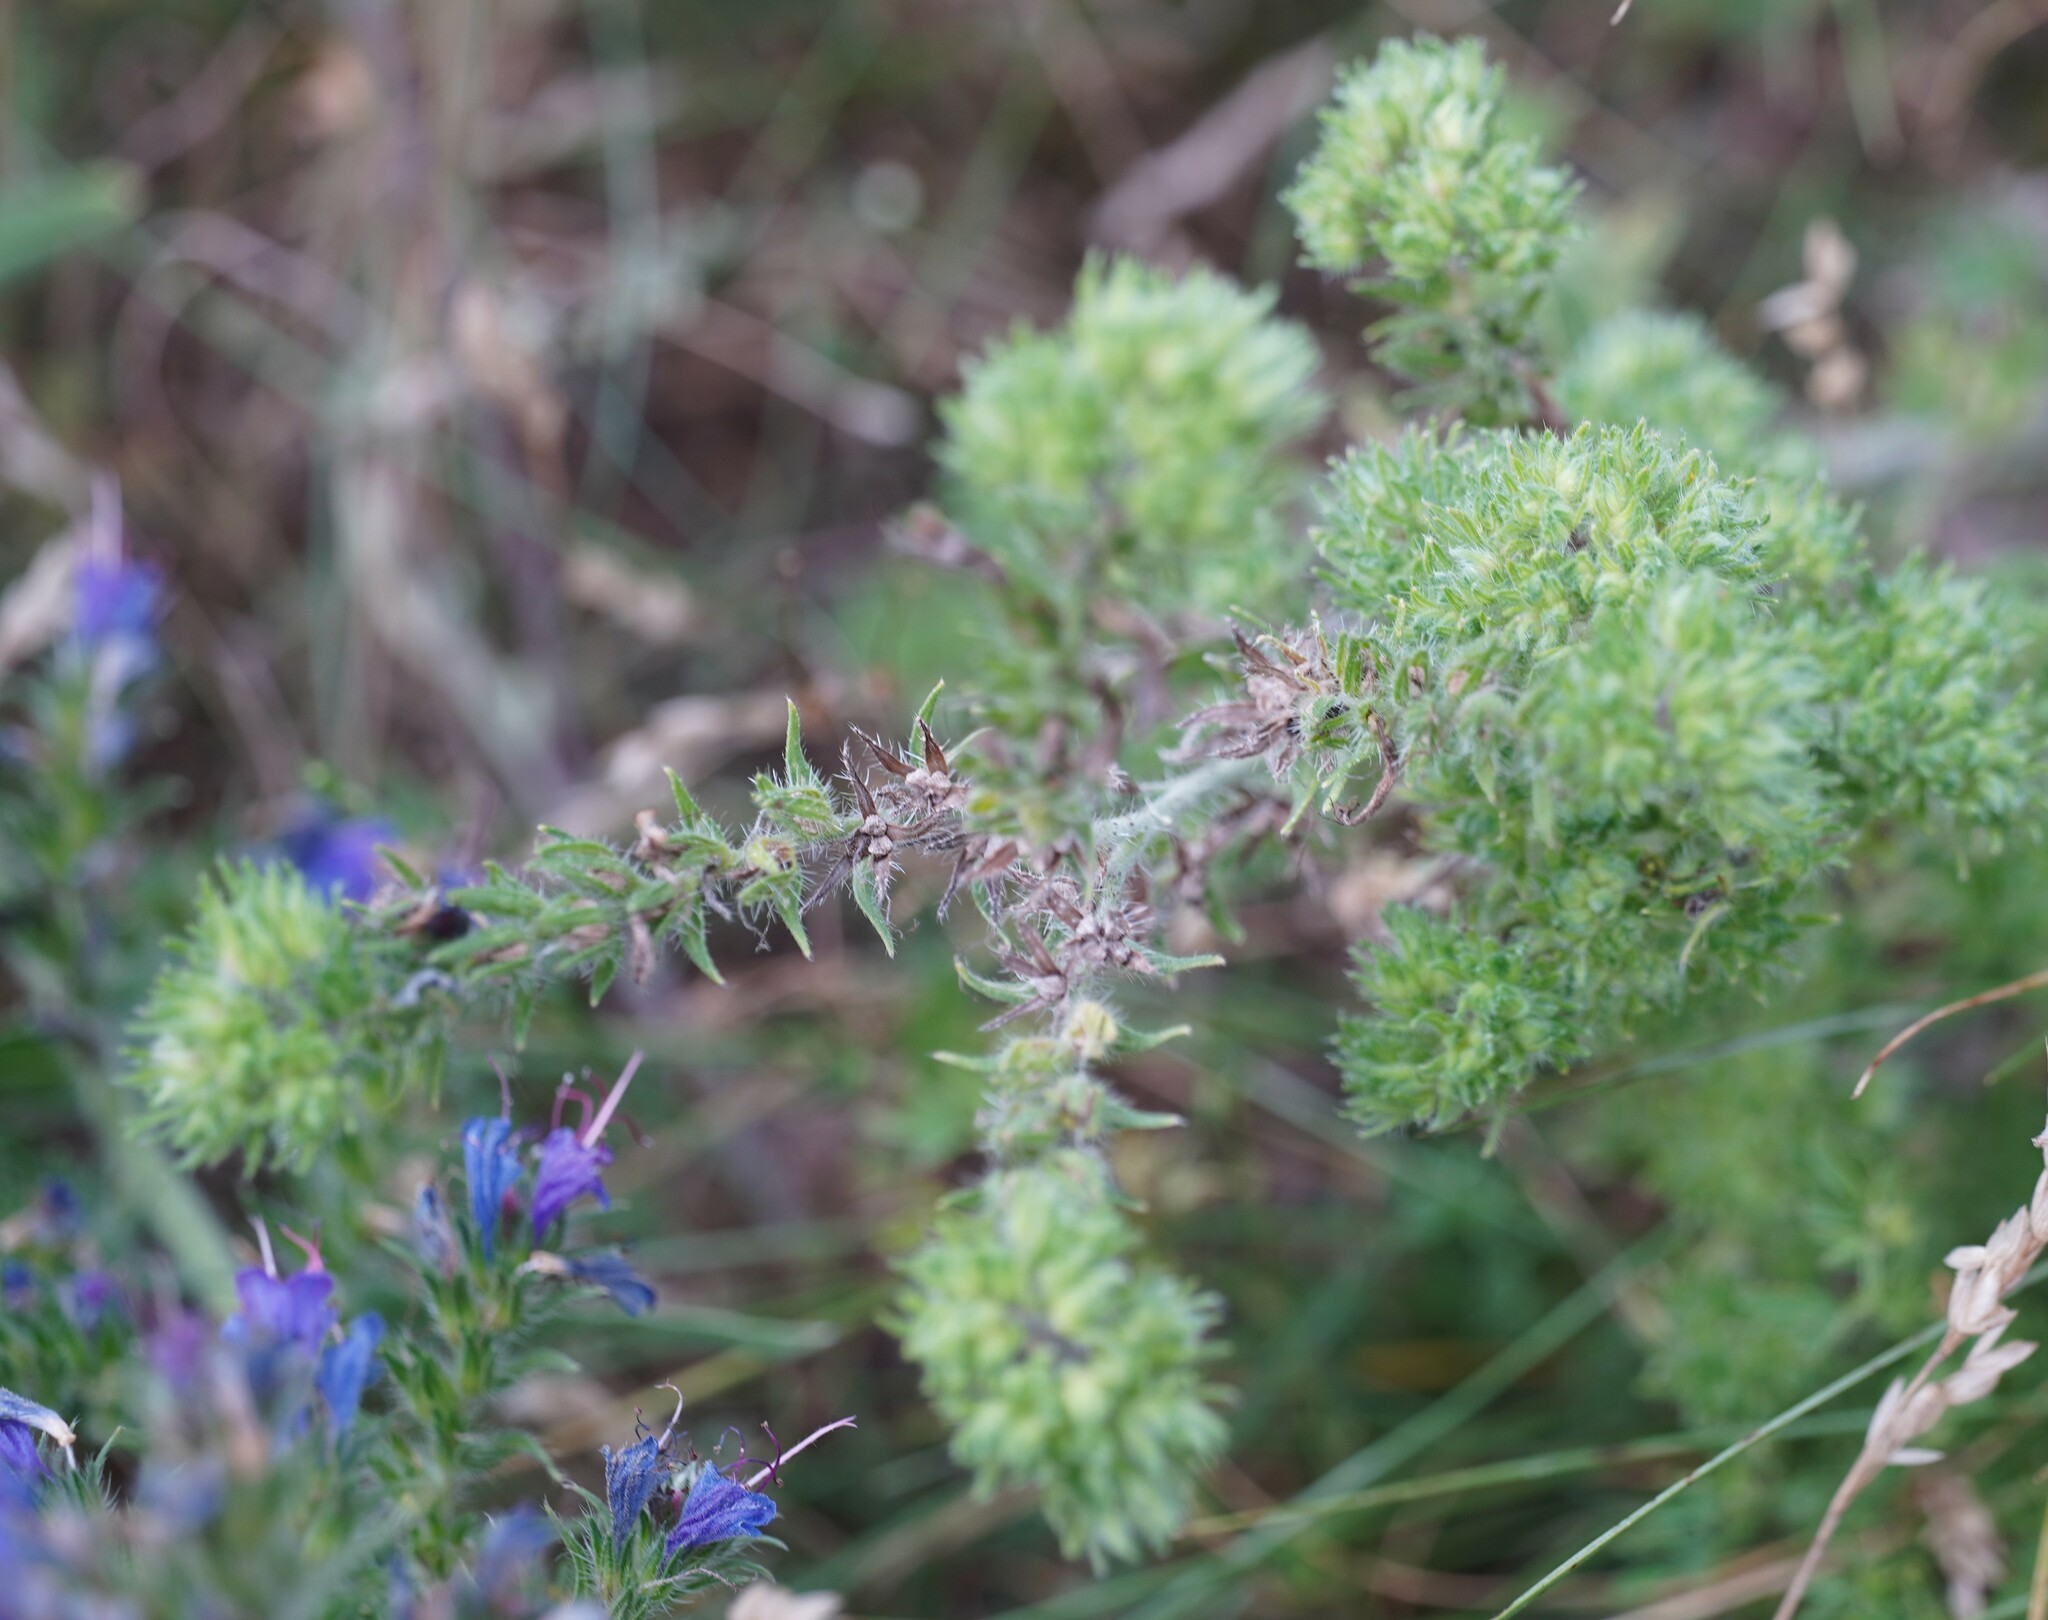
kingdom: Animalia
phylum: Arthropoda
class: Arachnida
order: Trombidiformes
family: Eriophyidae
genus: Aceria
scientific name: Aceria echii
